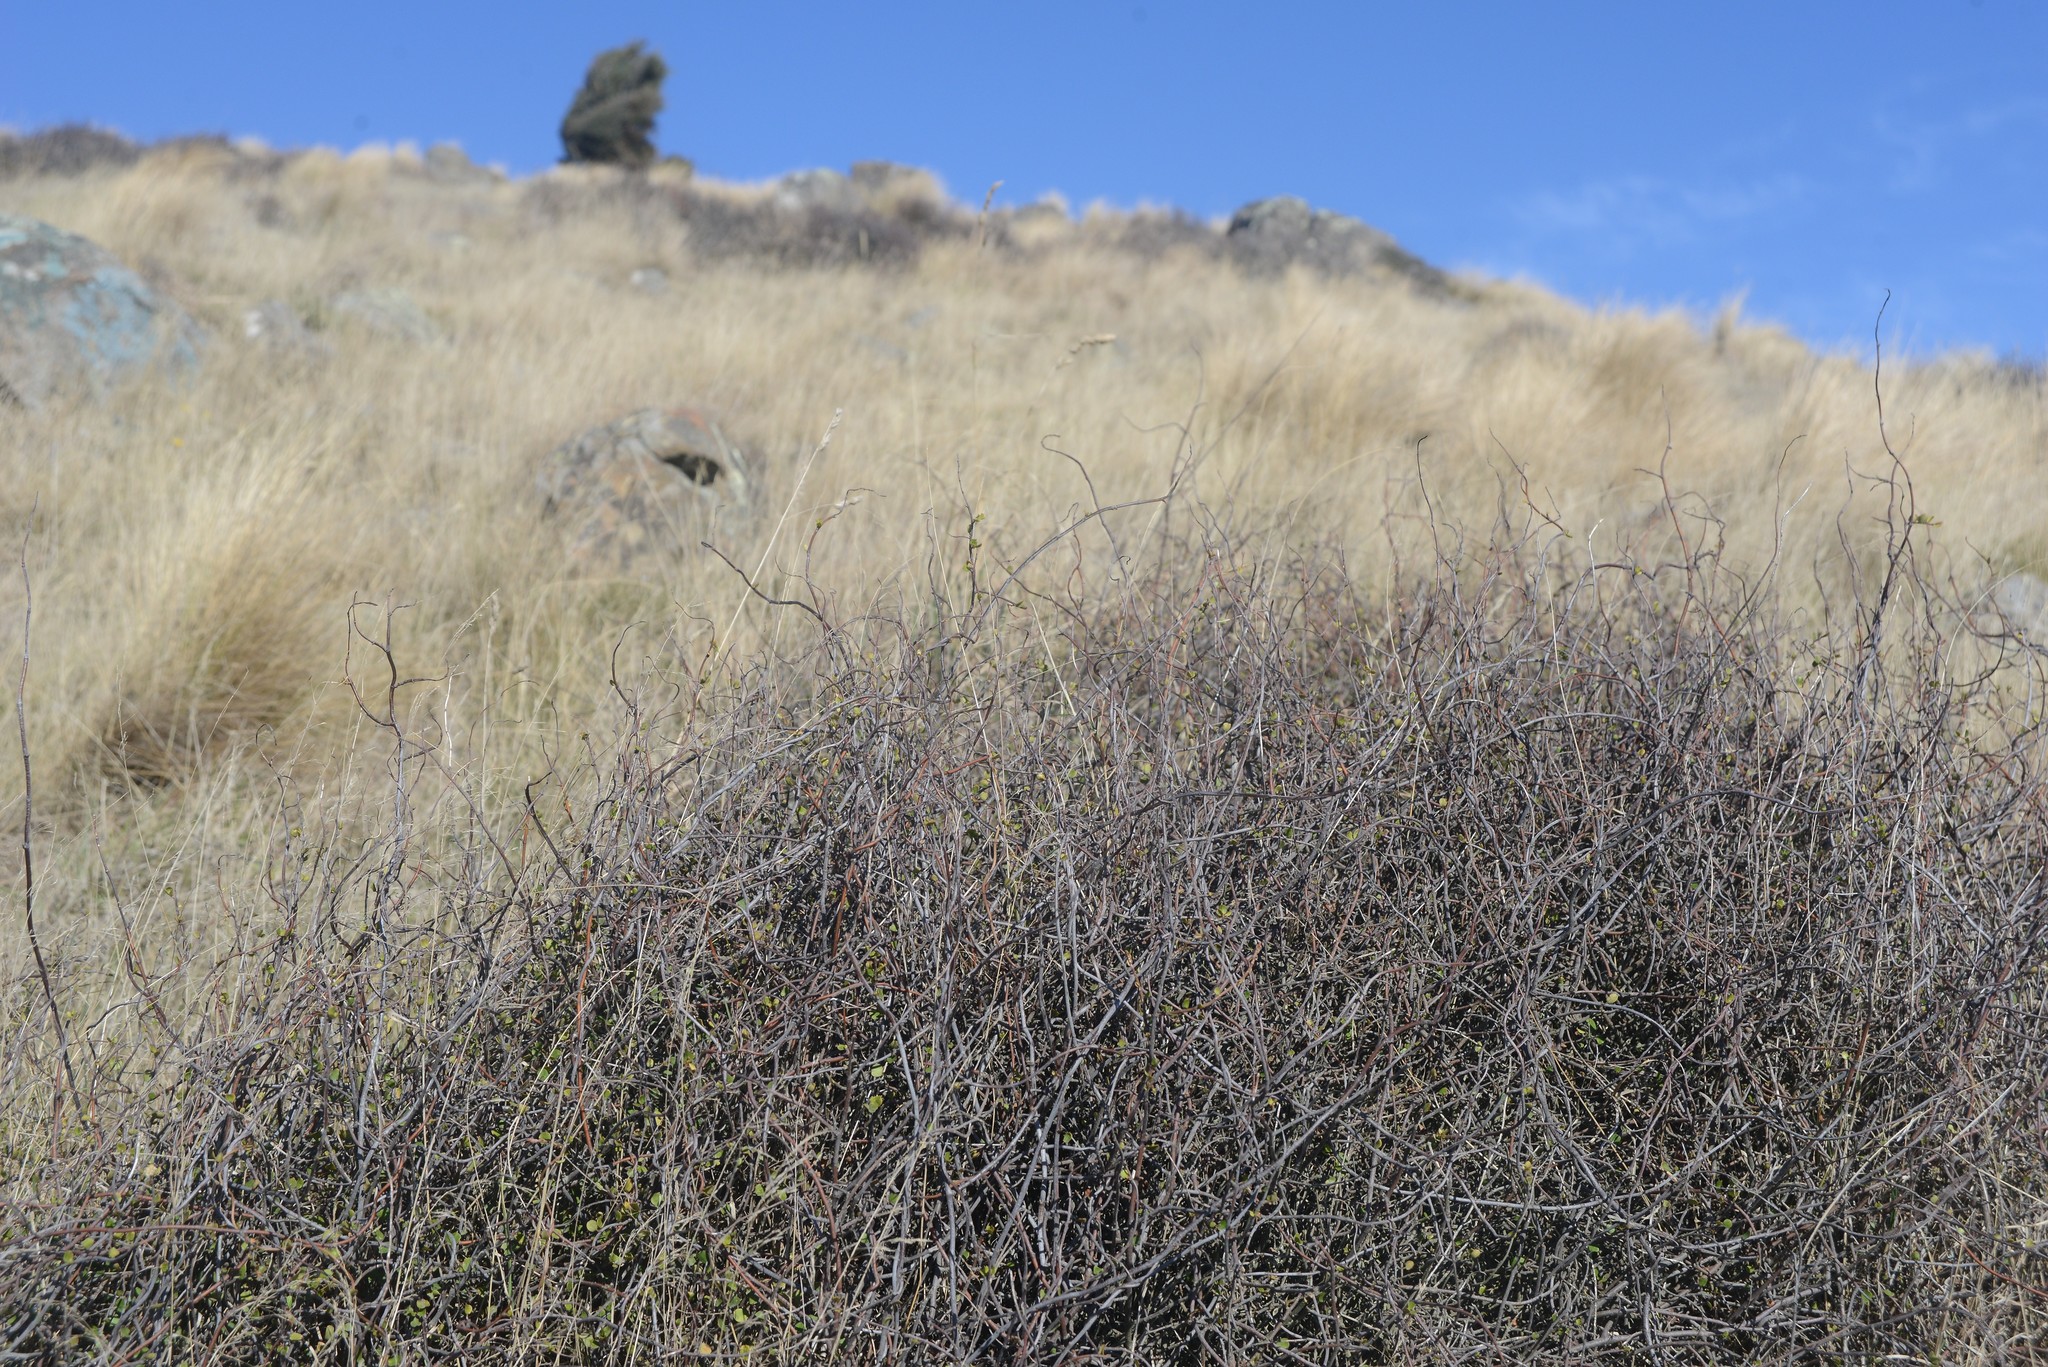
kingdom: Plantae
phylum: Tracheophyta
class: Magnoliopsida
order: Caryophyllales
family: Polygonaceae
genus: Muehlenbeckia
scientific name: Muehlenbeckia complexa
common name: Wireplant
